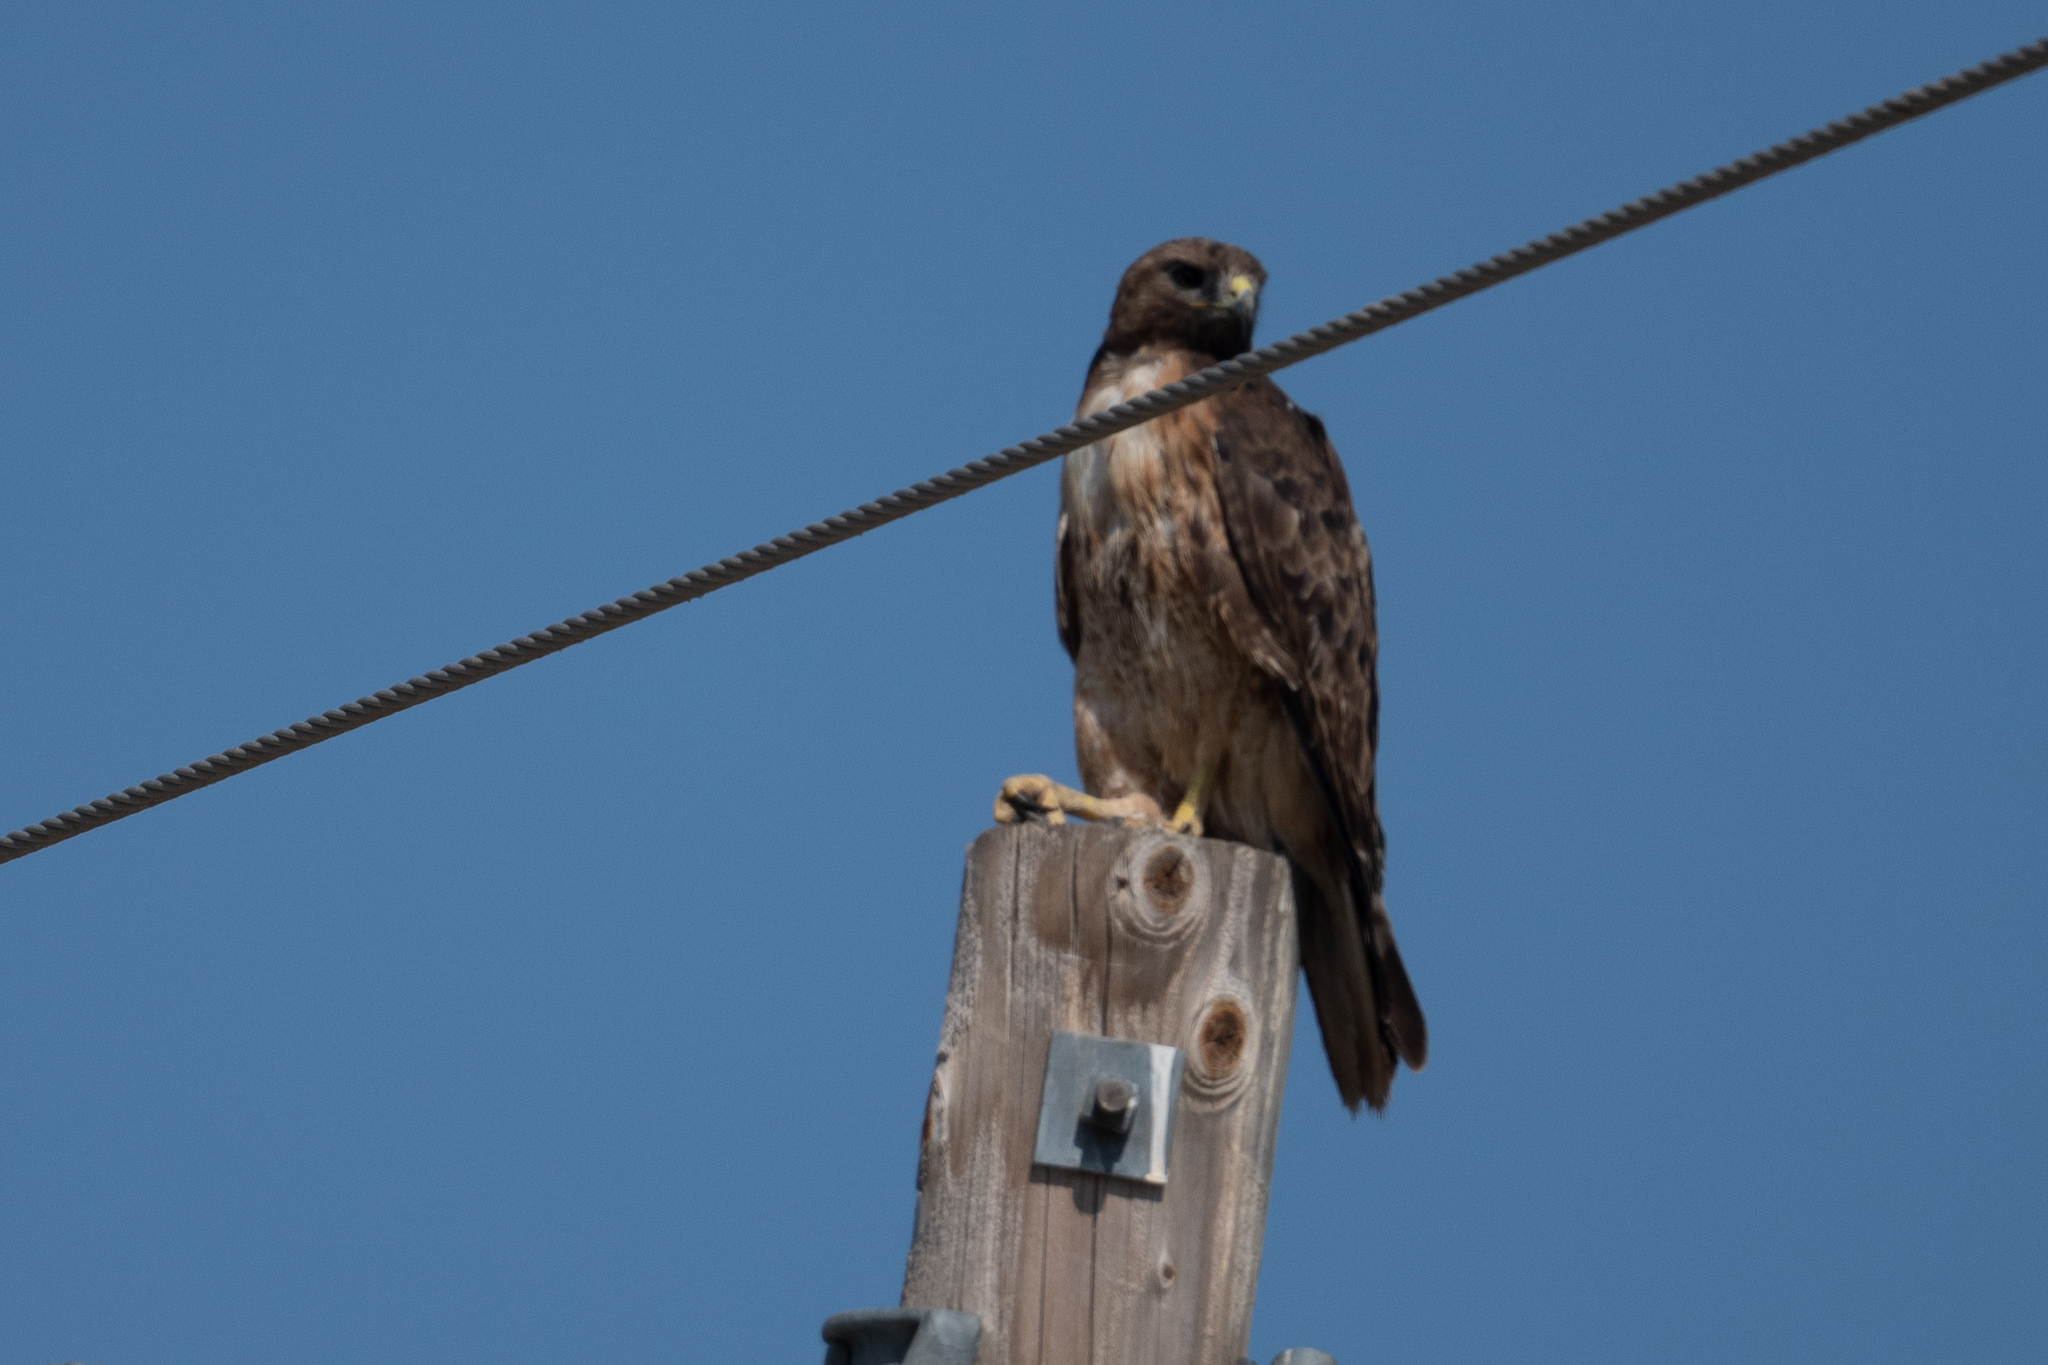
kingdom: Animalia
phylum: Chordata
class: Aves
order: Accipitriformes
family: Accipitridae
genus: Buteo
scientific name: Buteo jamaicensis
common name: Red-tailed hawk
